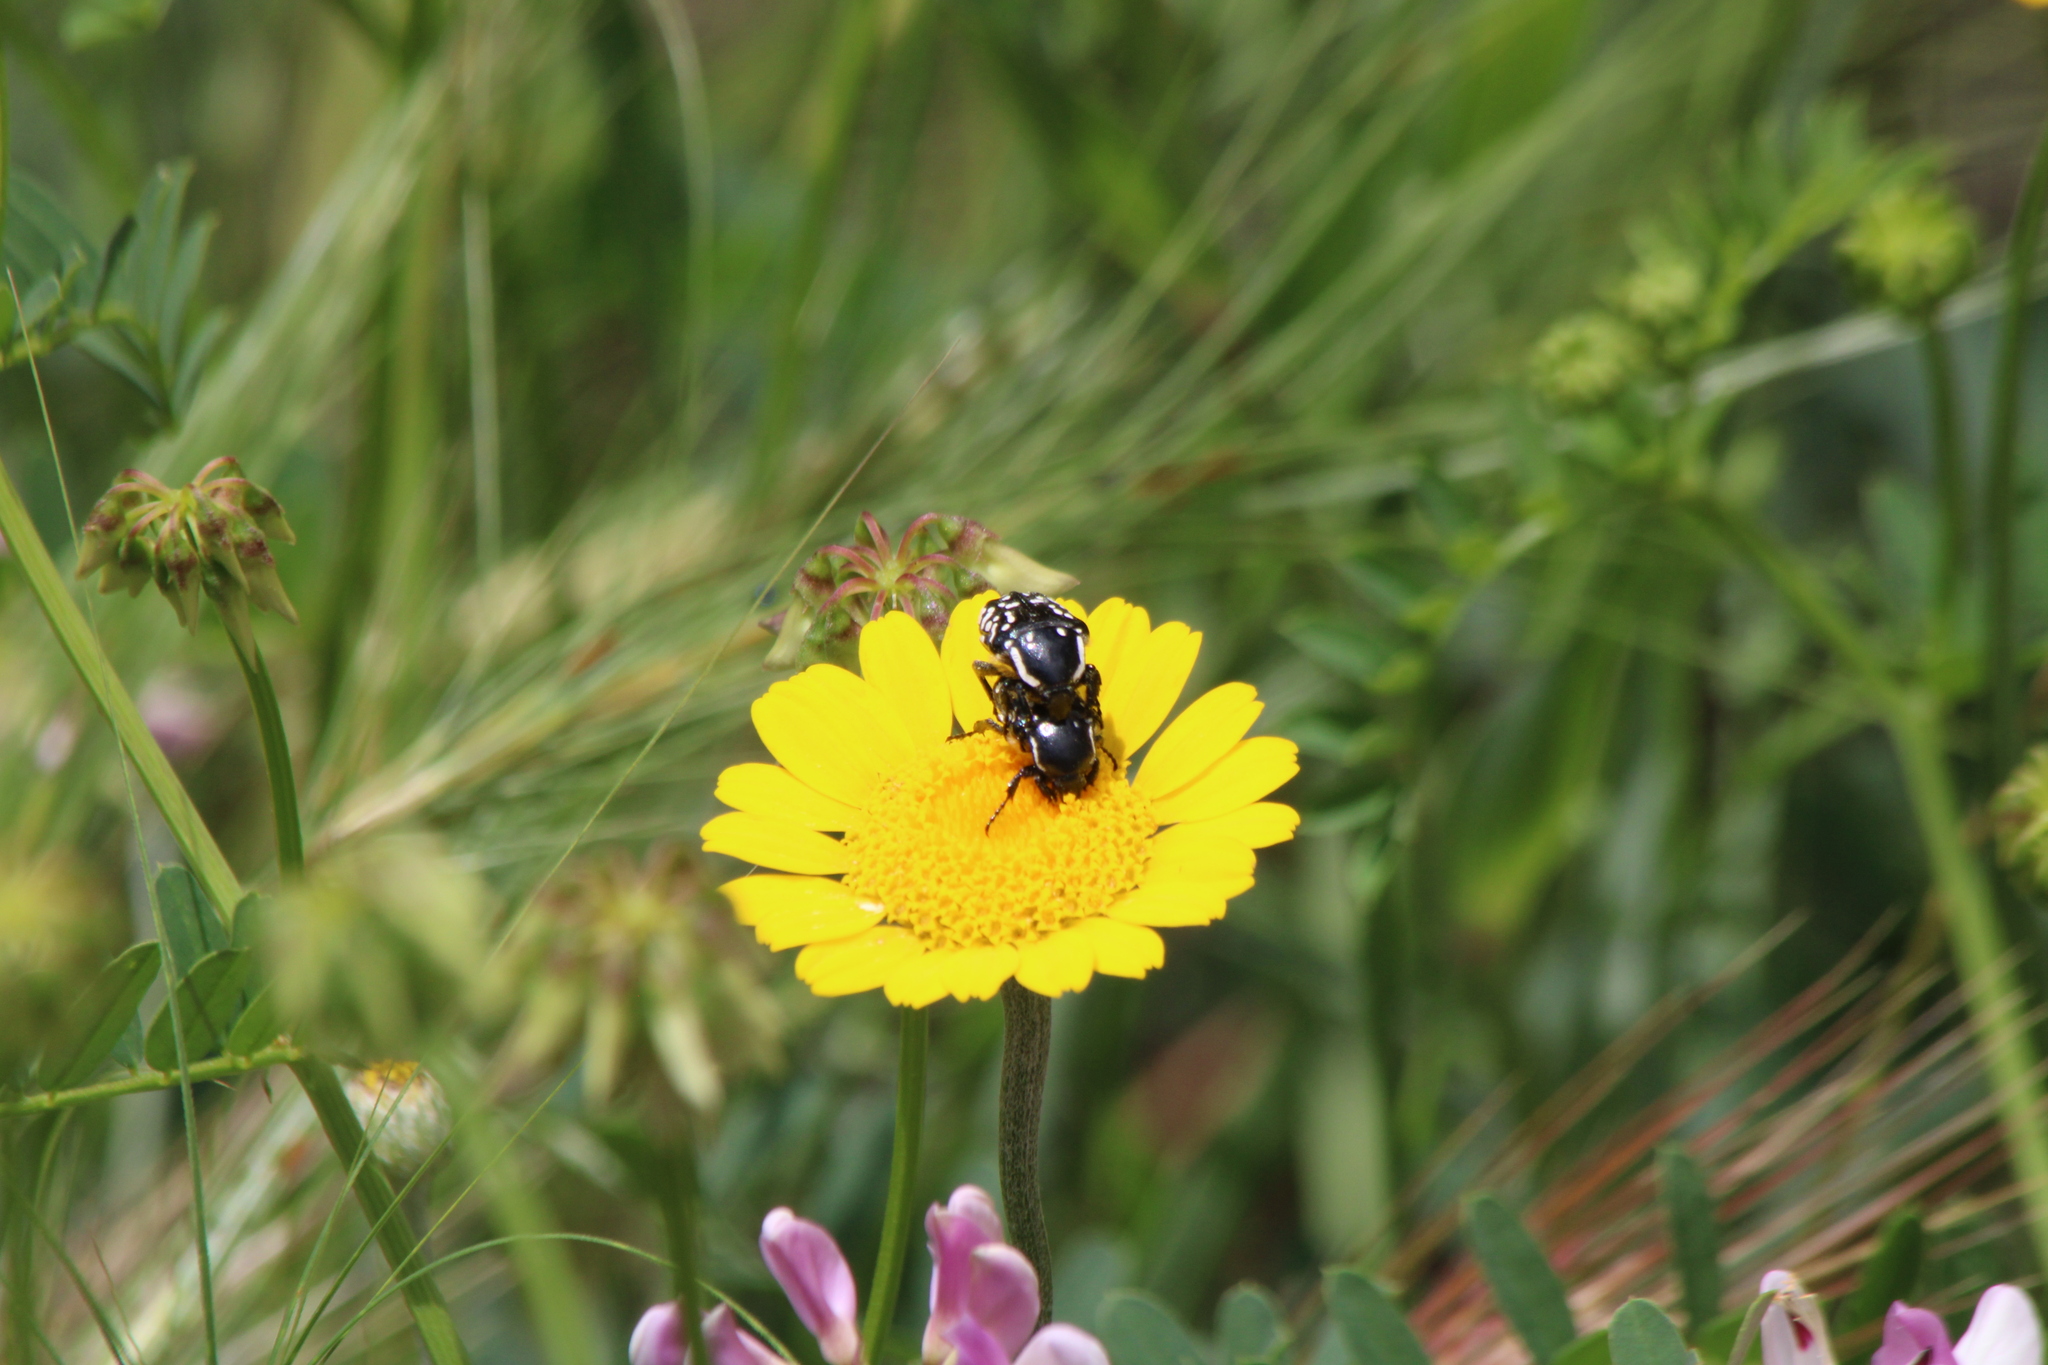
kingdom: Animalia
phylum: Arthropoda
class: Insecta
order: Coleoptera
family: Scarabaeidae
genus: Oxythyrea
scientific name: Oxythyrea cinctella
